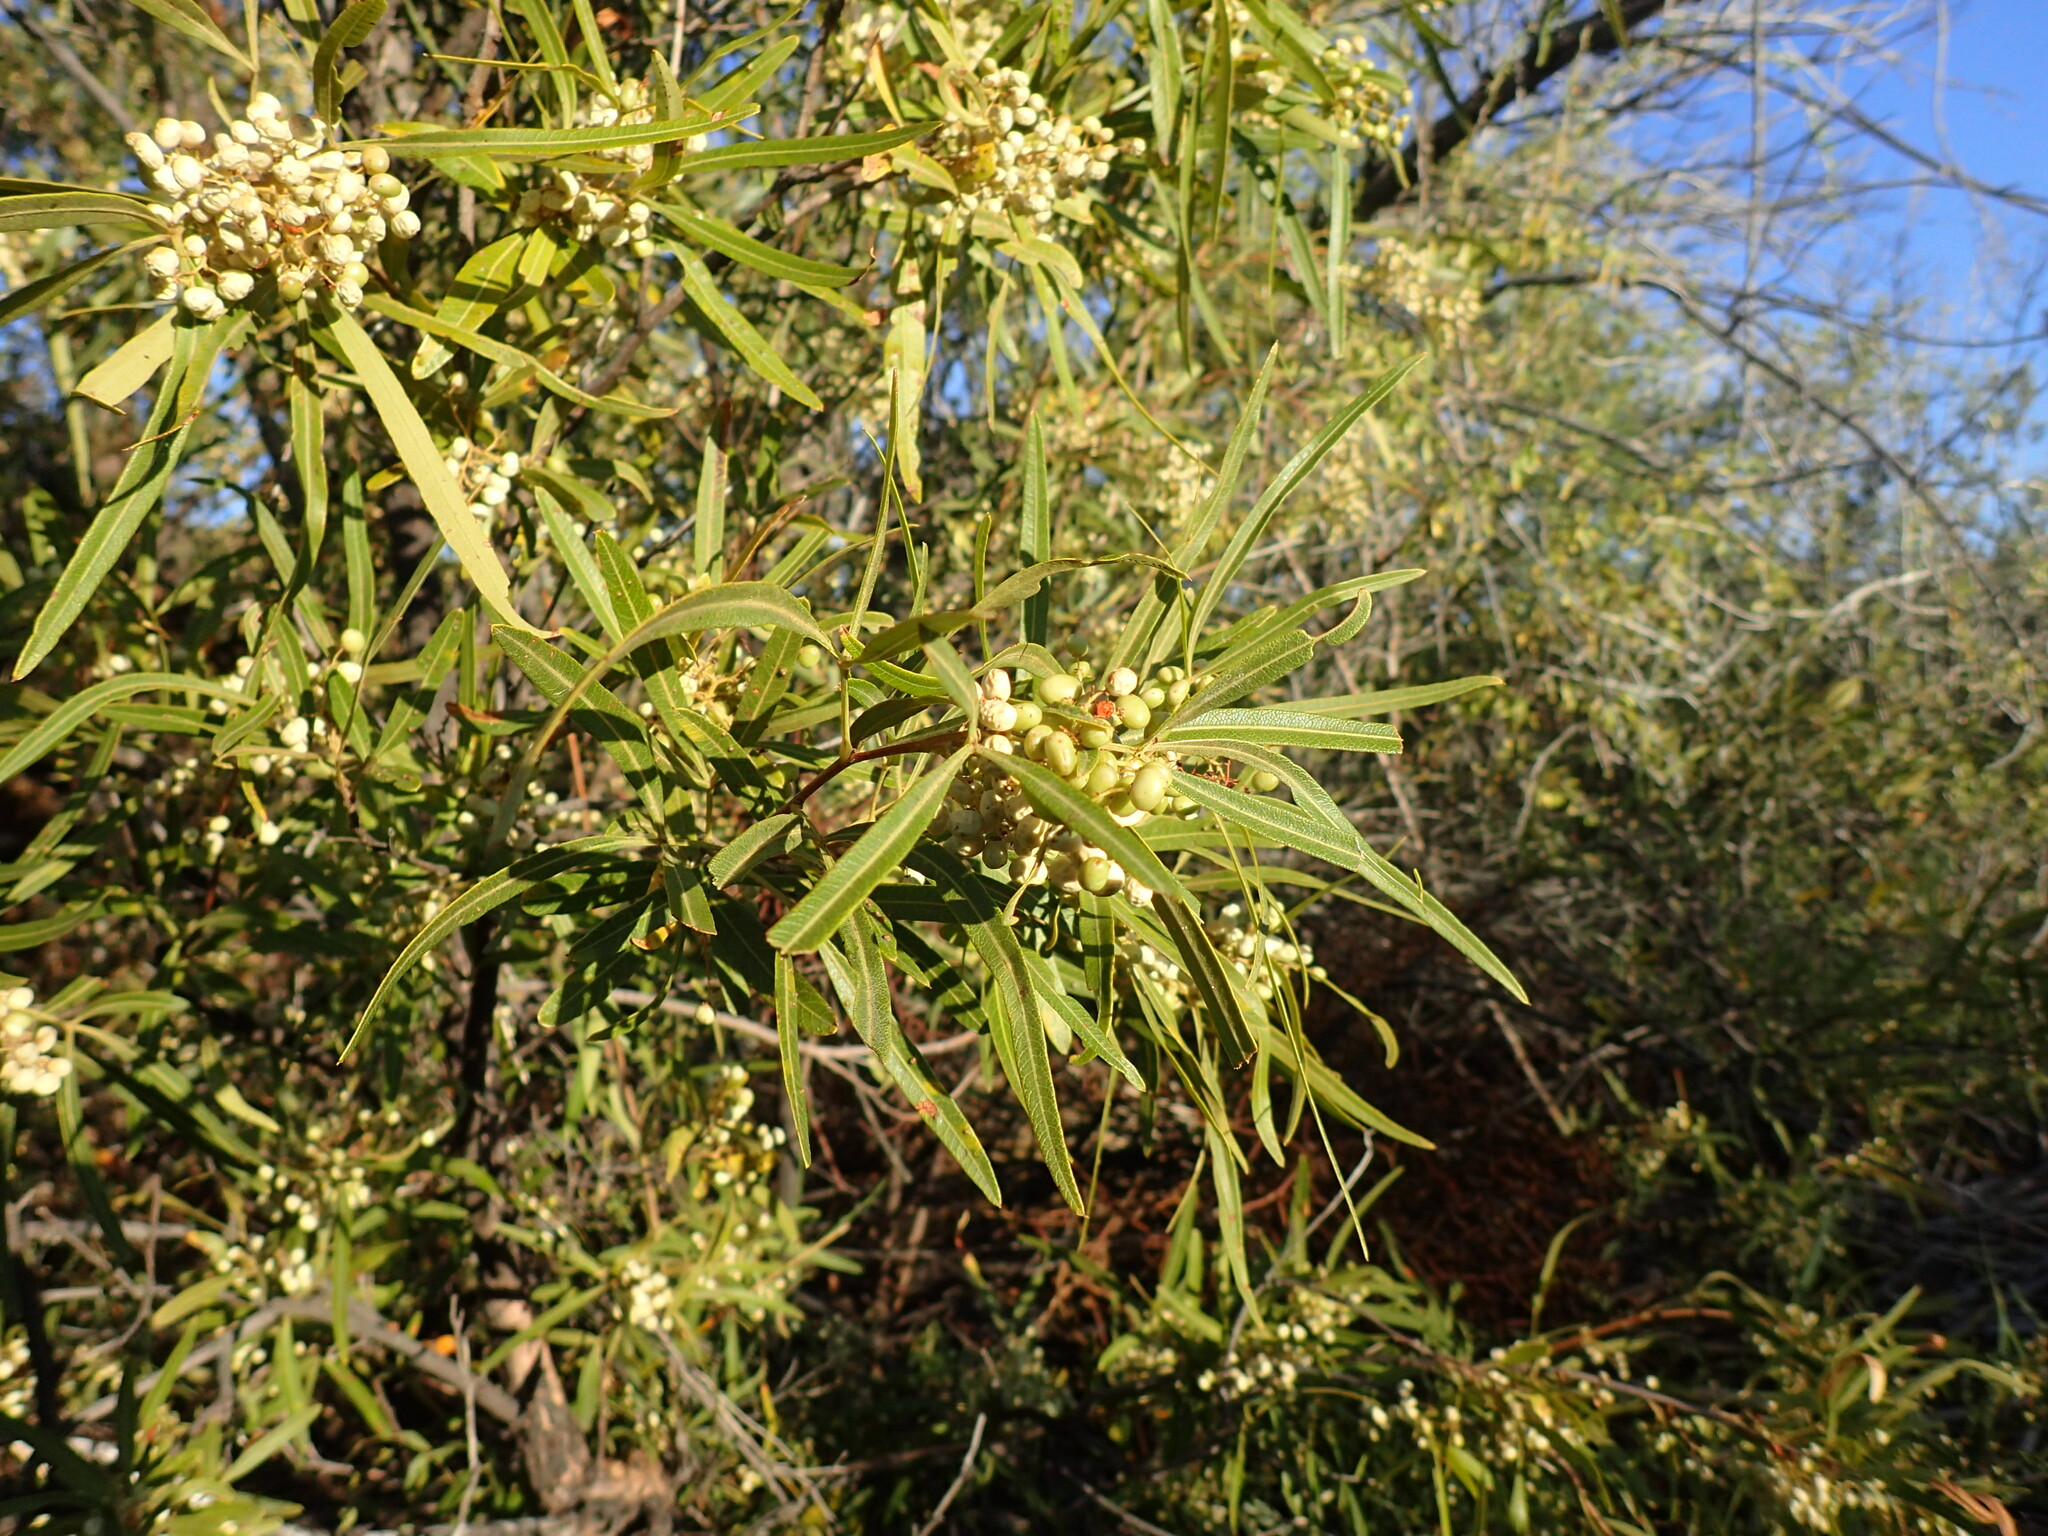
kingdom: Plantae
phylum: Tracheophyta
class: Magnoliopsida
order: Sapindales
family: Anacardiaceae
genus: Searsia
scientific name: Searsia lancea
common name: Cashew
